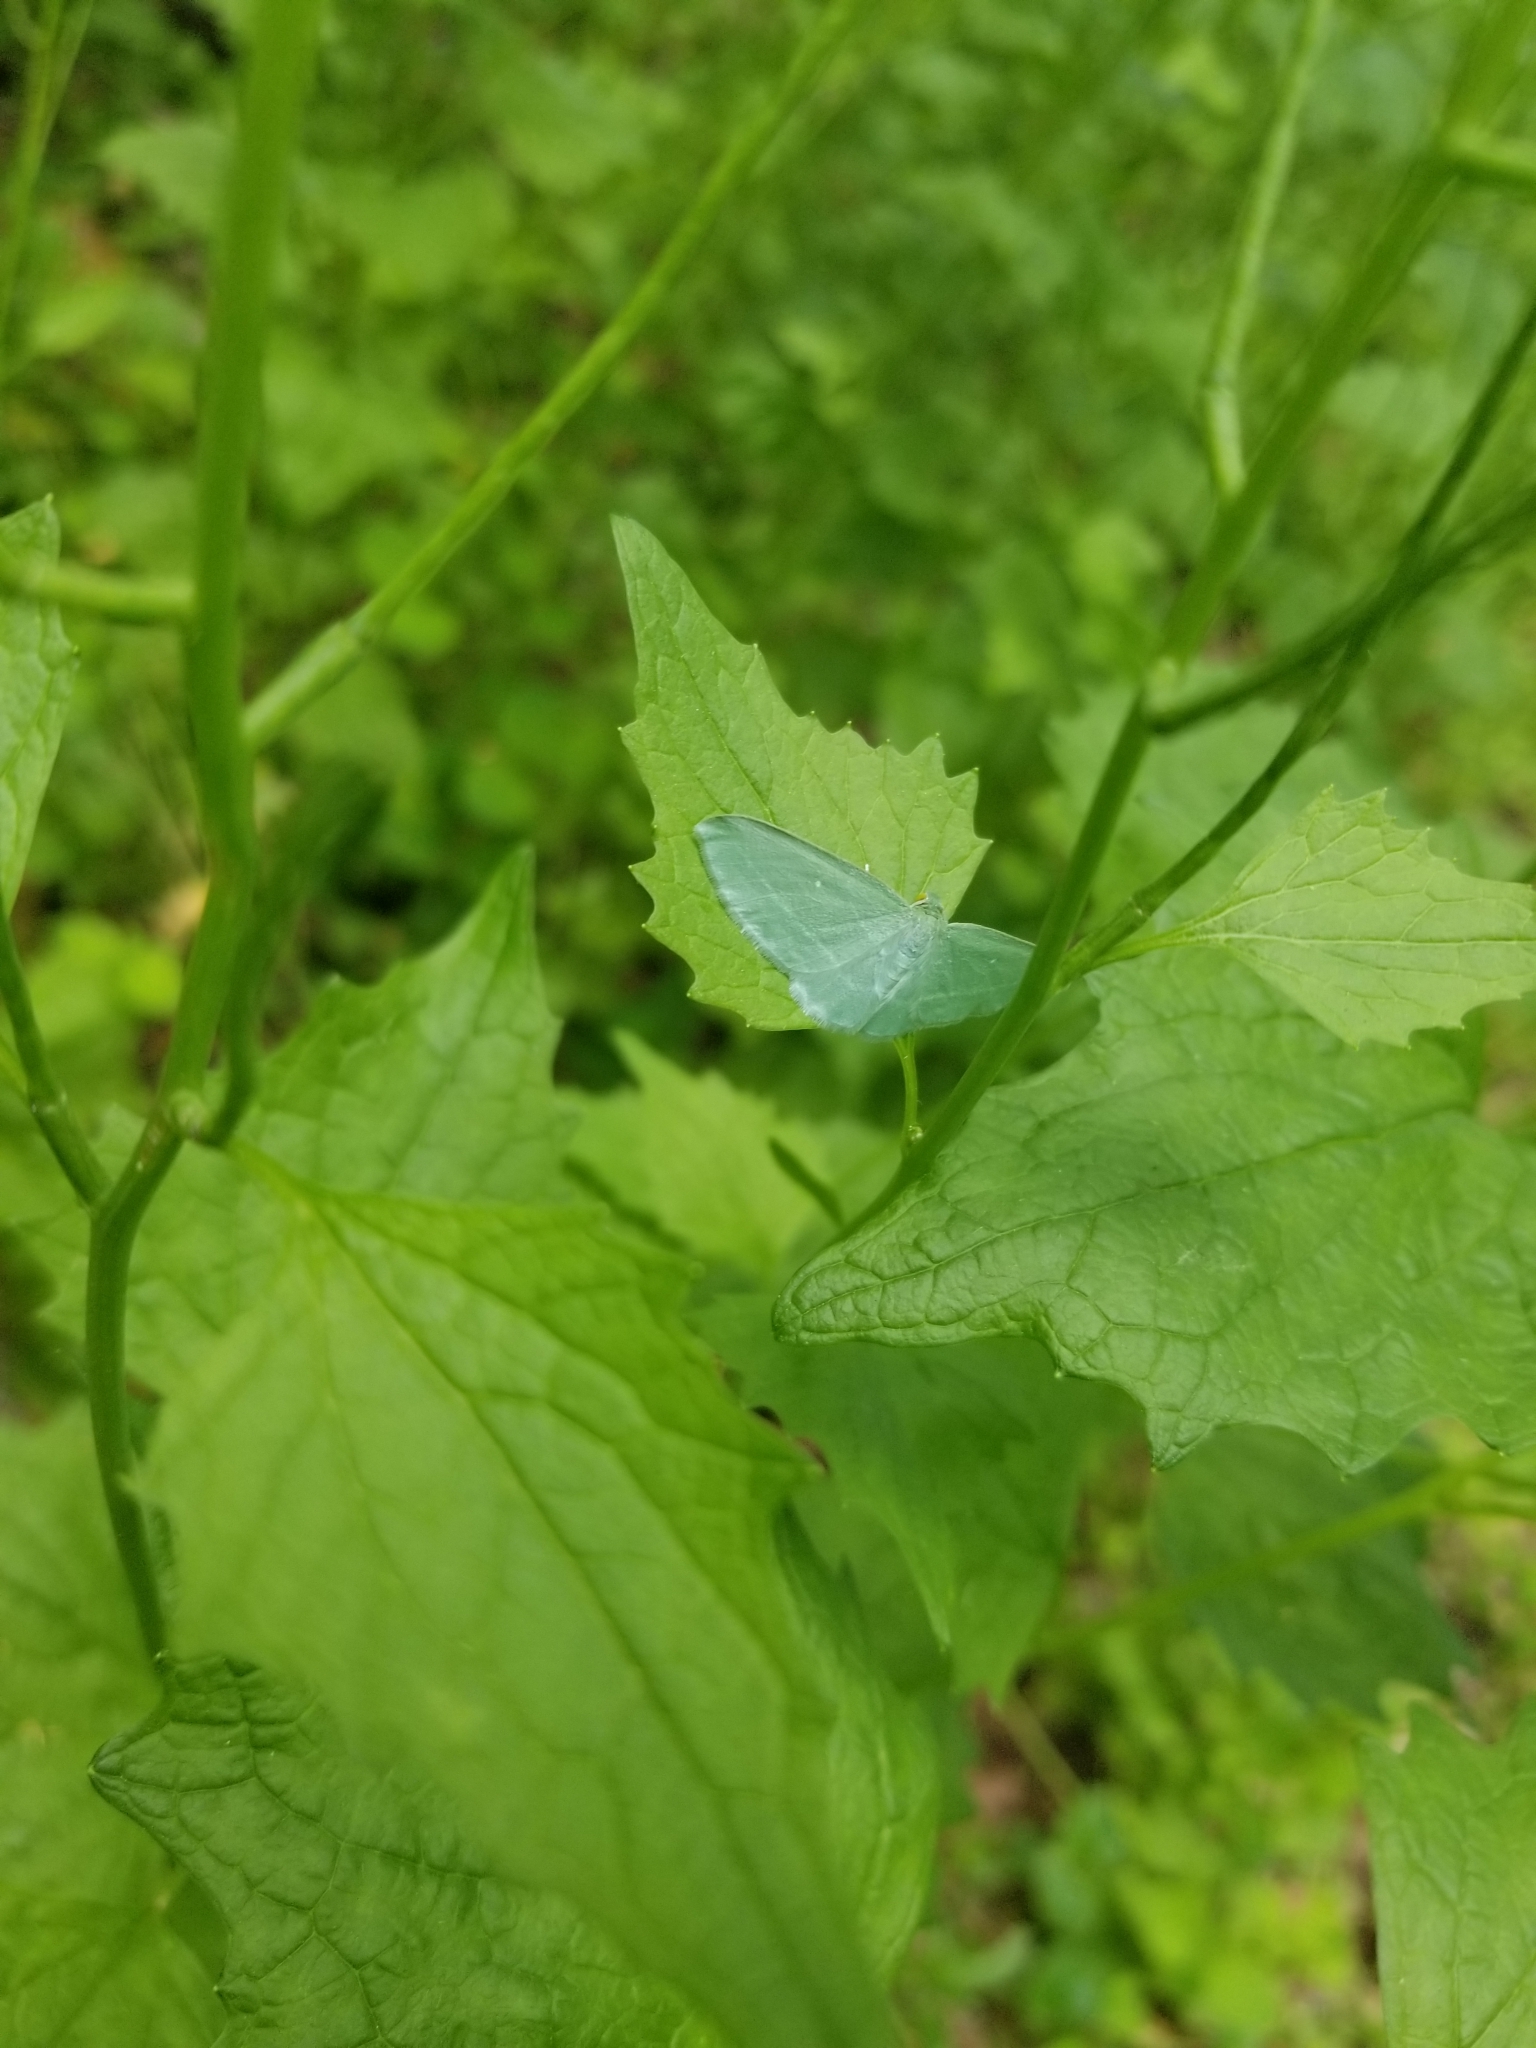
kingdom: Animalia
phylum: Arthropoda
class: Insecta
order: Lepidoptera
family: Geometridae
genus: Dyspteris
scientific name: Dyspteris abortivaria
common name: Bad-wing
